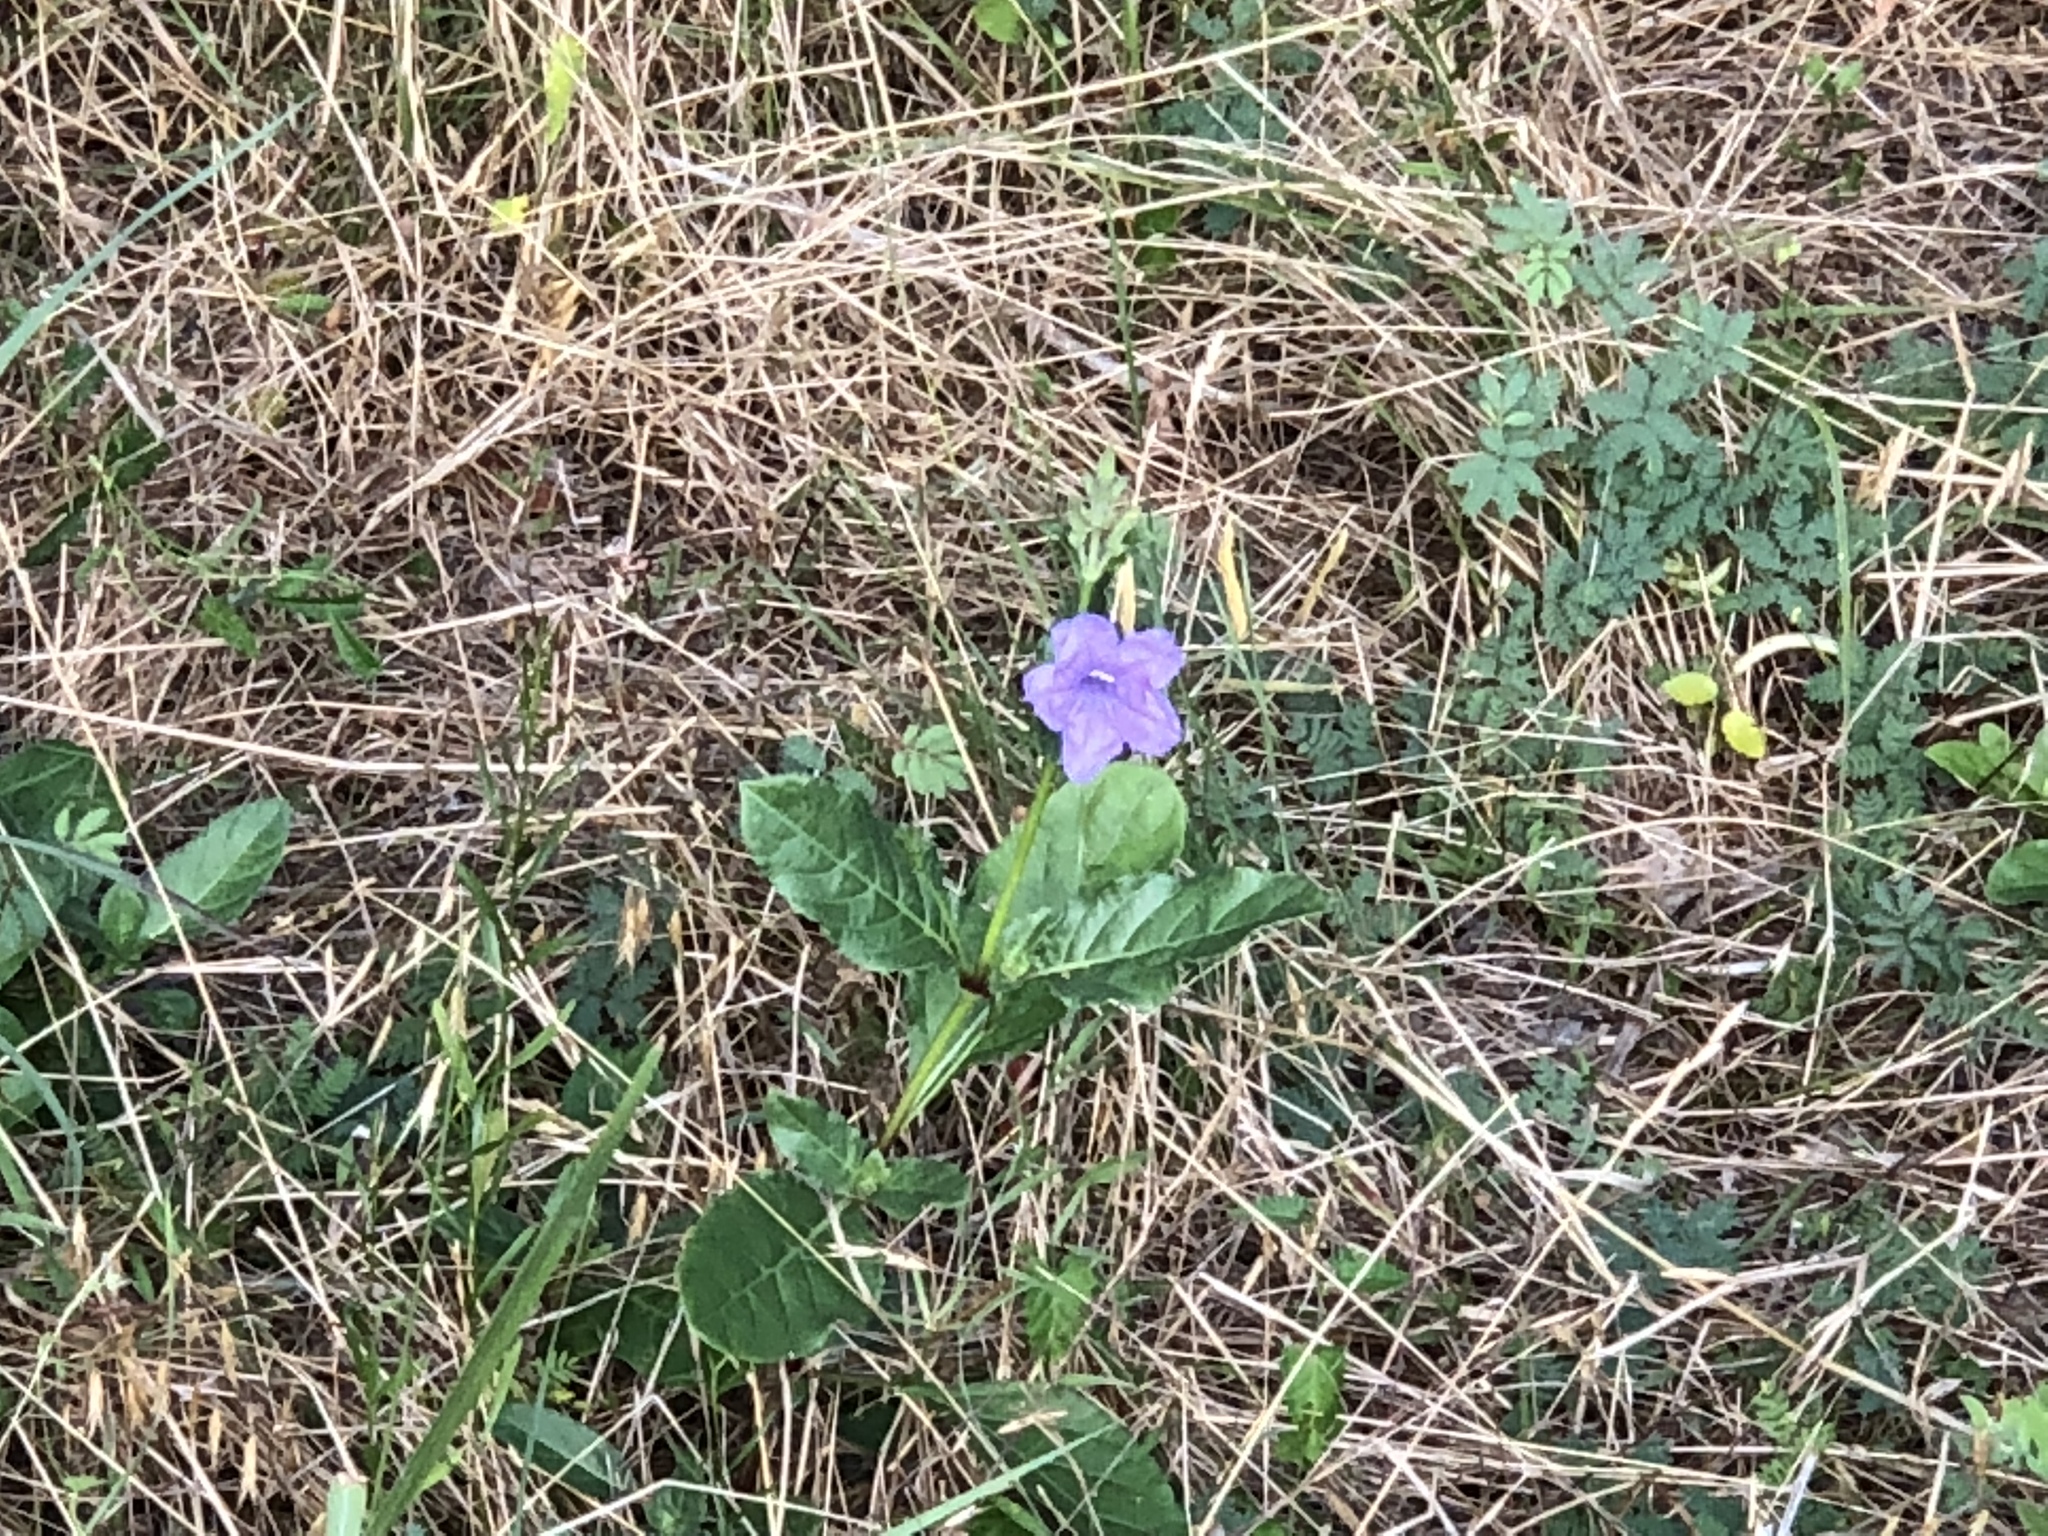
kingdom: Plantae
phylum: Tracheophyta
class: Magnoliopsida
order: Lamiales
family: Acanthaceae
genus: Ruellia
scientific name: Ruellia ciliatiflora
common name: Hairyflower wild petunia
